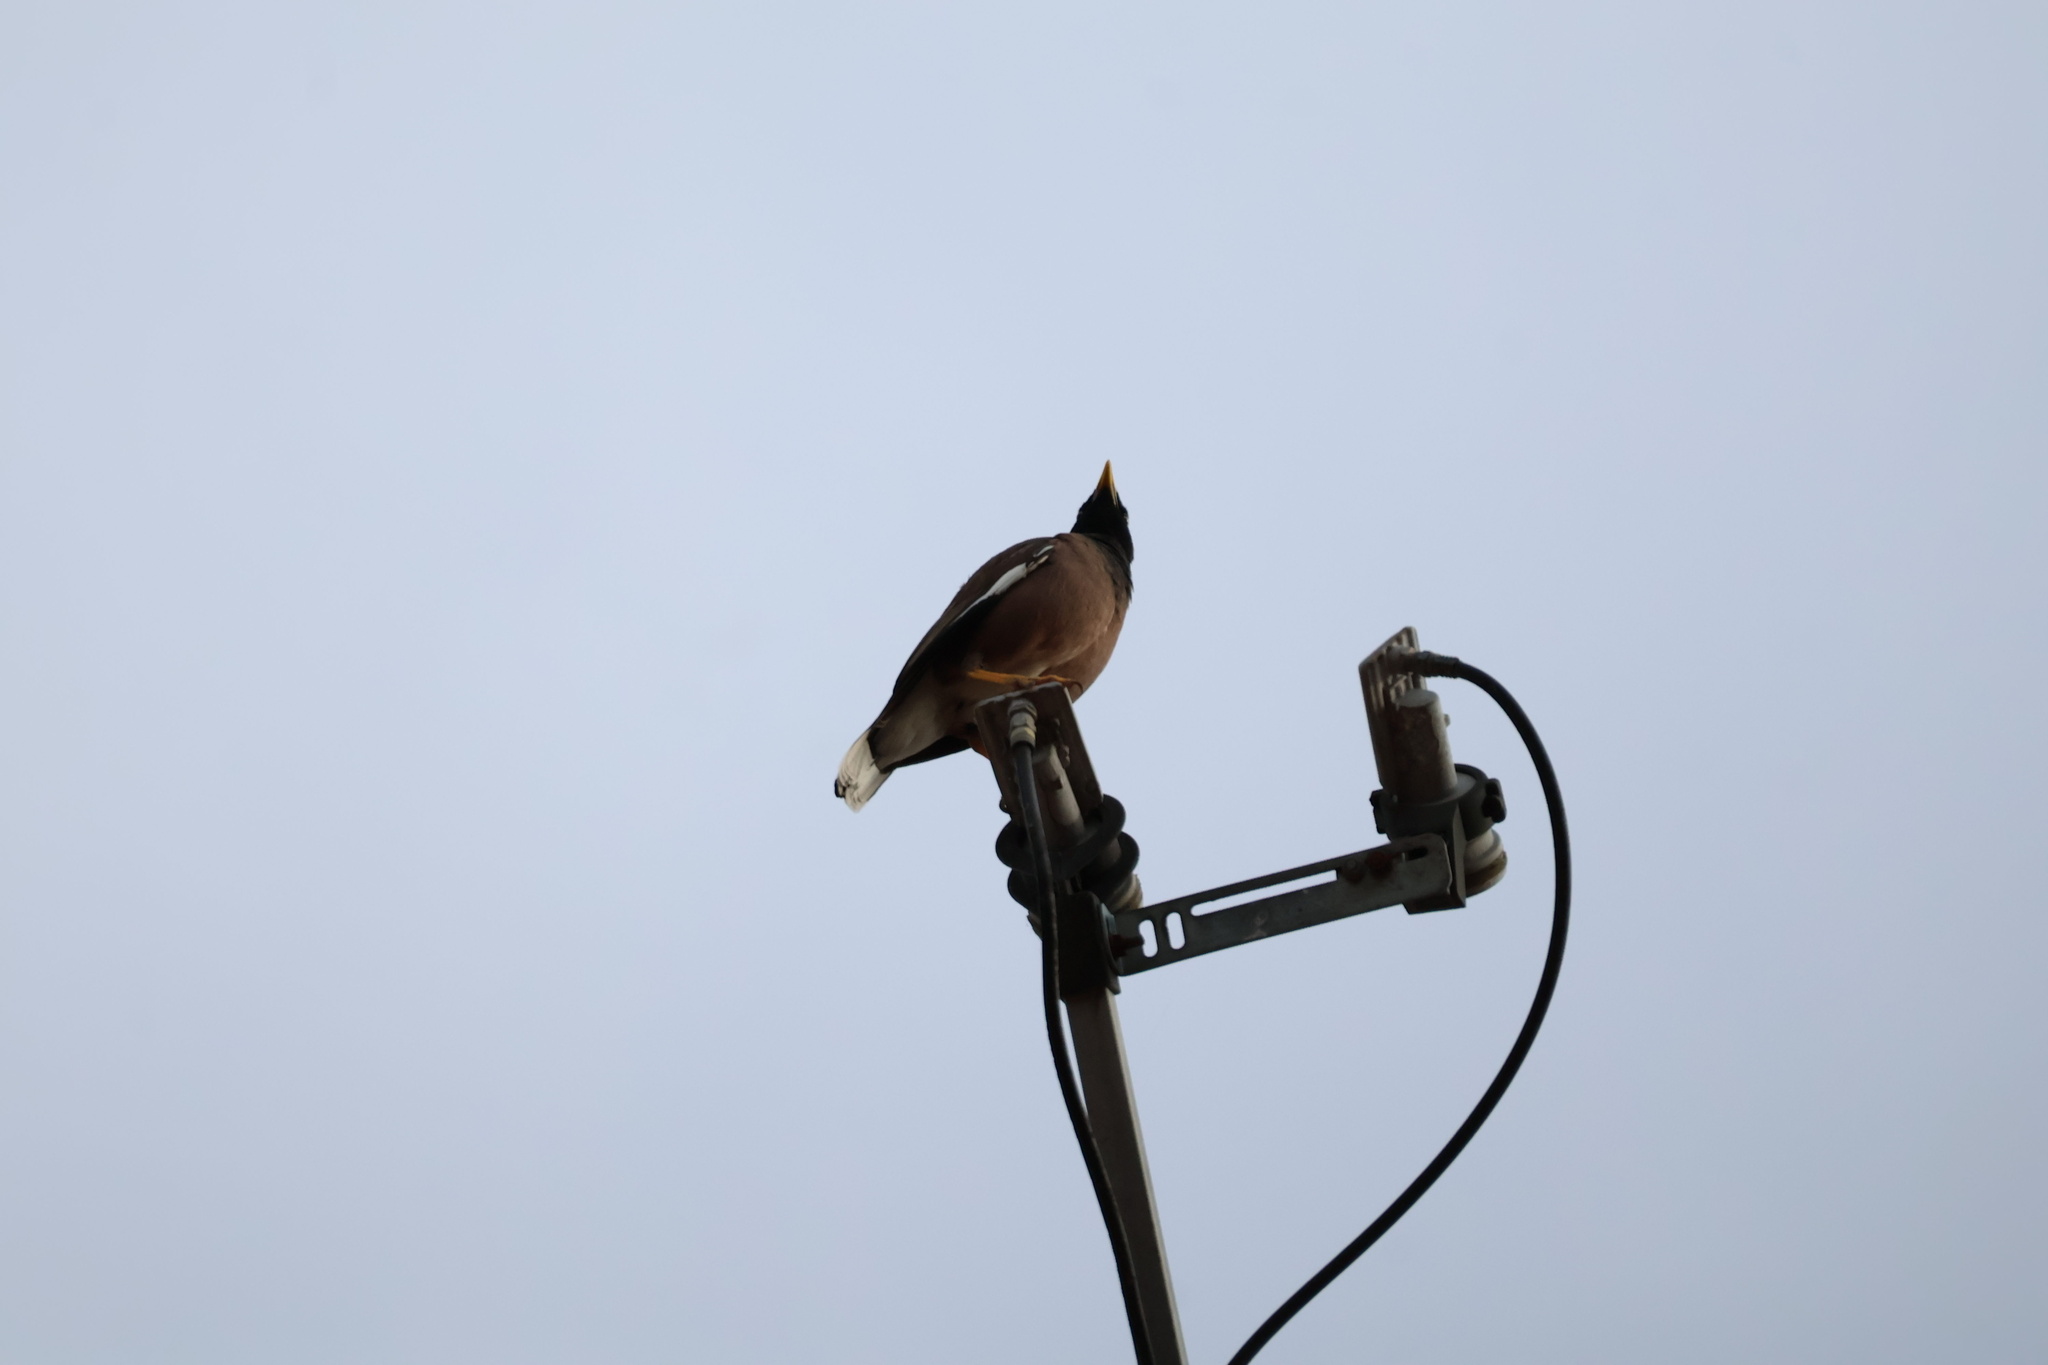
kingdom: Animalia
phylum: Chordata
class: Aves
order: Passeriformes
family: Sturnidae
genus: Acridotheres
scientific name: Acridotheres tristis
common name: Common myna
